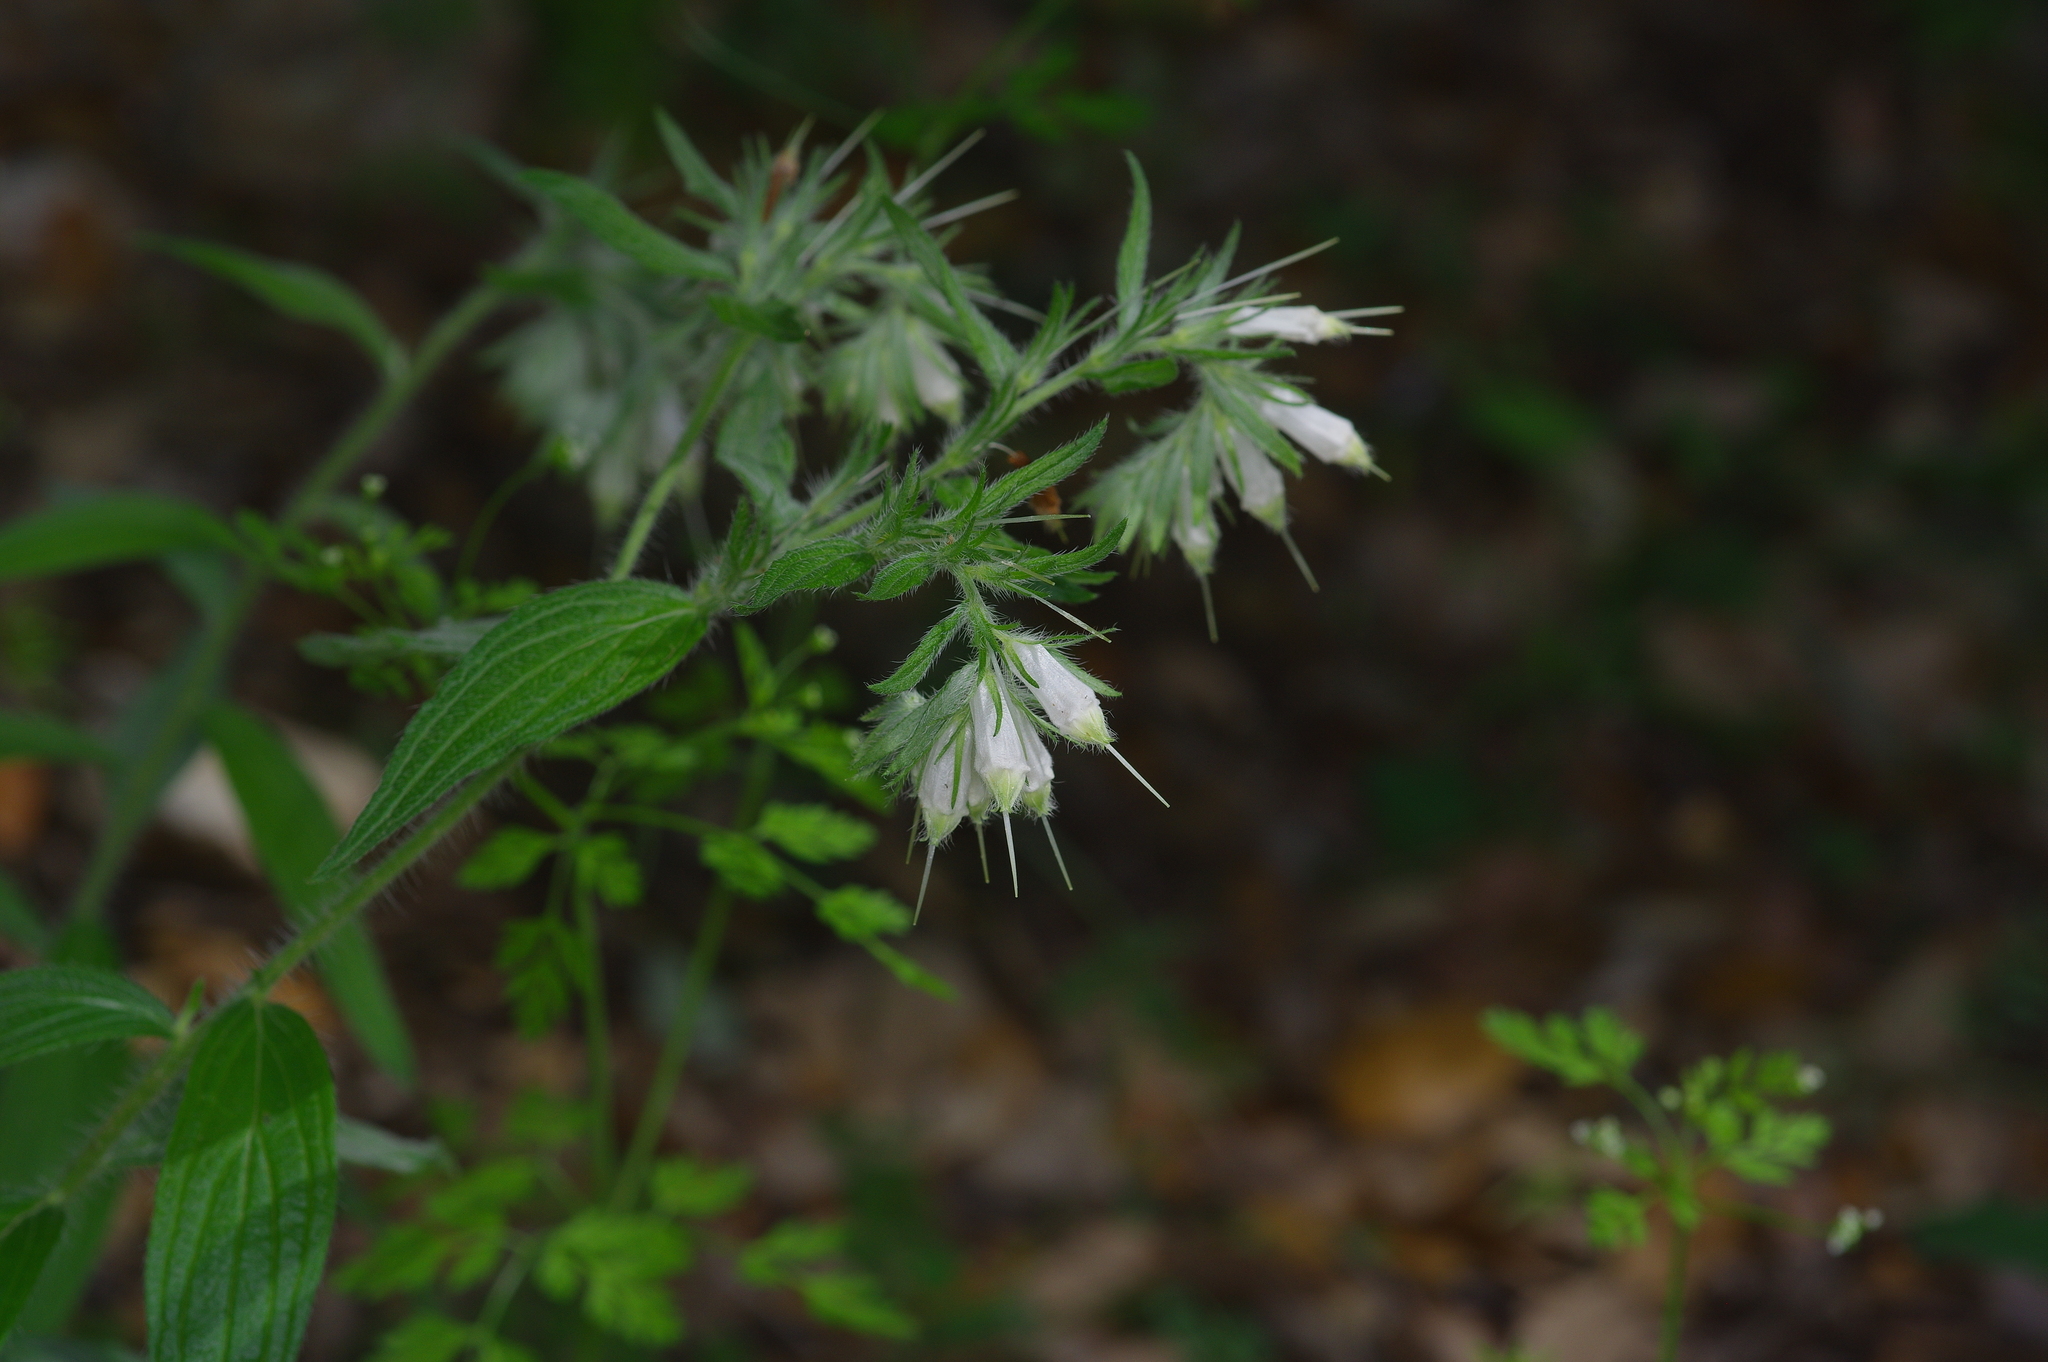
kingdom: Plantae
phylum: Tracheophyta
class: Magnoliopsida
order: Boraginales
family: Boraginaceae
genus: Lithospermum
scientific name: Lithospermum caroliniense
